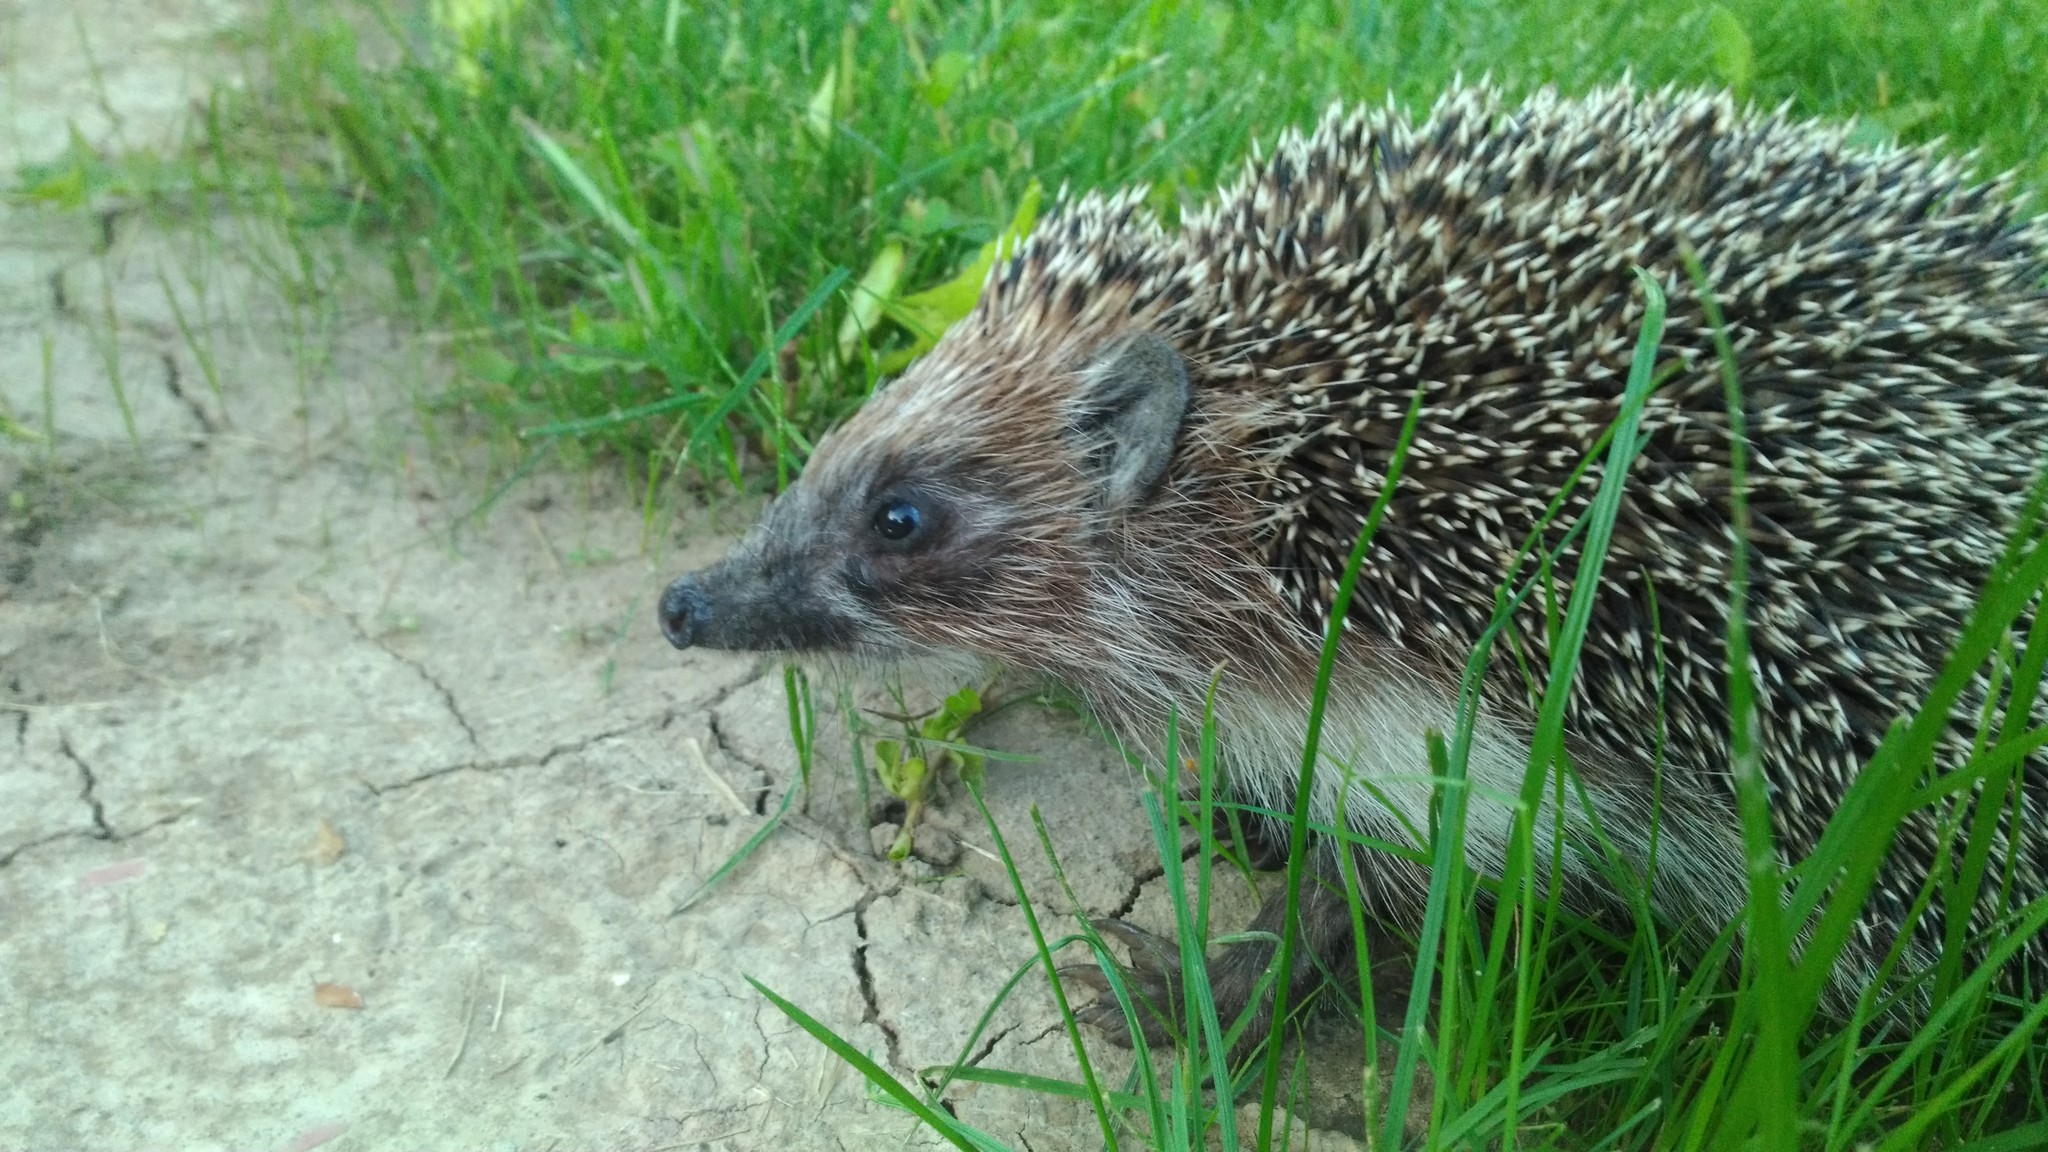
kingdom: Animalia
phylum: Chordata
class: Mammalia
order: Erinaceomorpha
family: Erinaceidae
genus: Erinaceus
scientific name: Erinaceus roumanicus
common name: Northern white-breasted hedgehog
